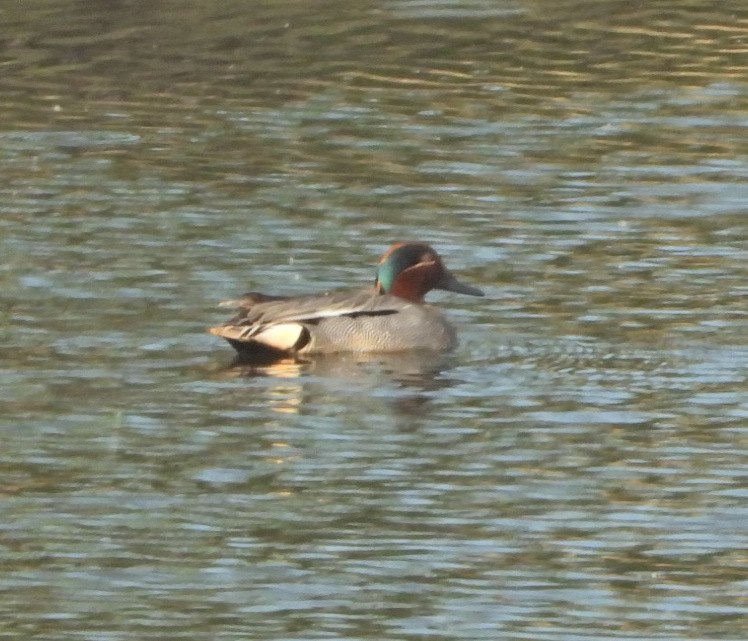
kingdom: Animalia
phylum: Chordata
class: Aves
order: Anseriformes
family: Anatidae
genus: Anas
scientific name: Anas crecca
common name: Eurasian teal
